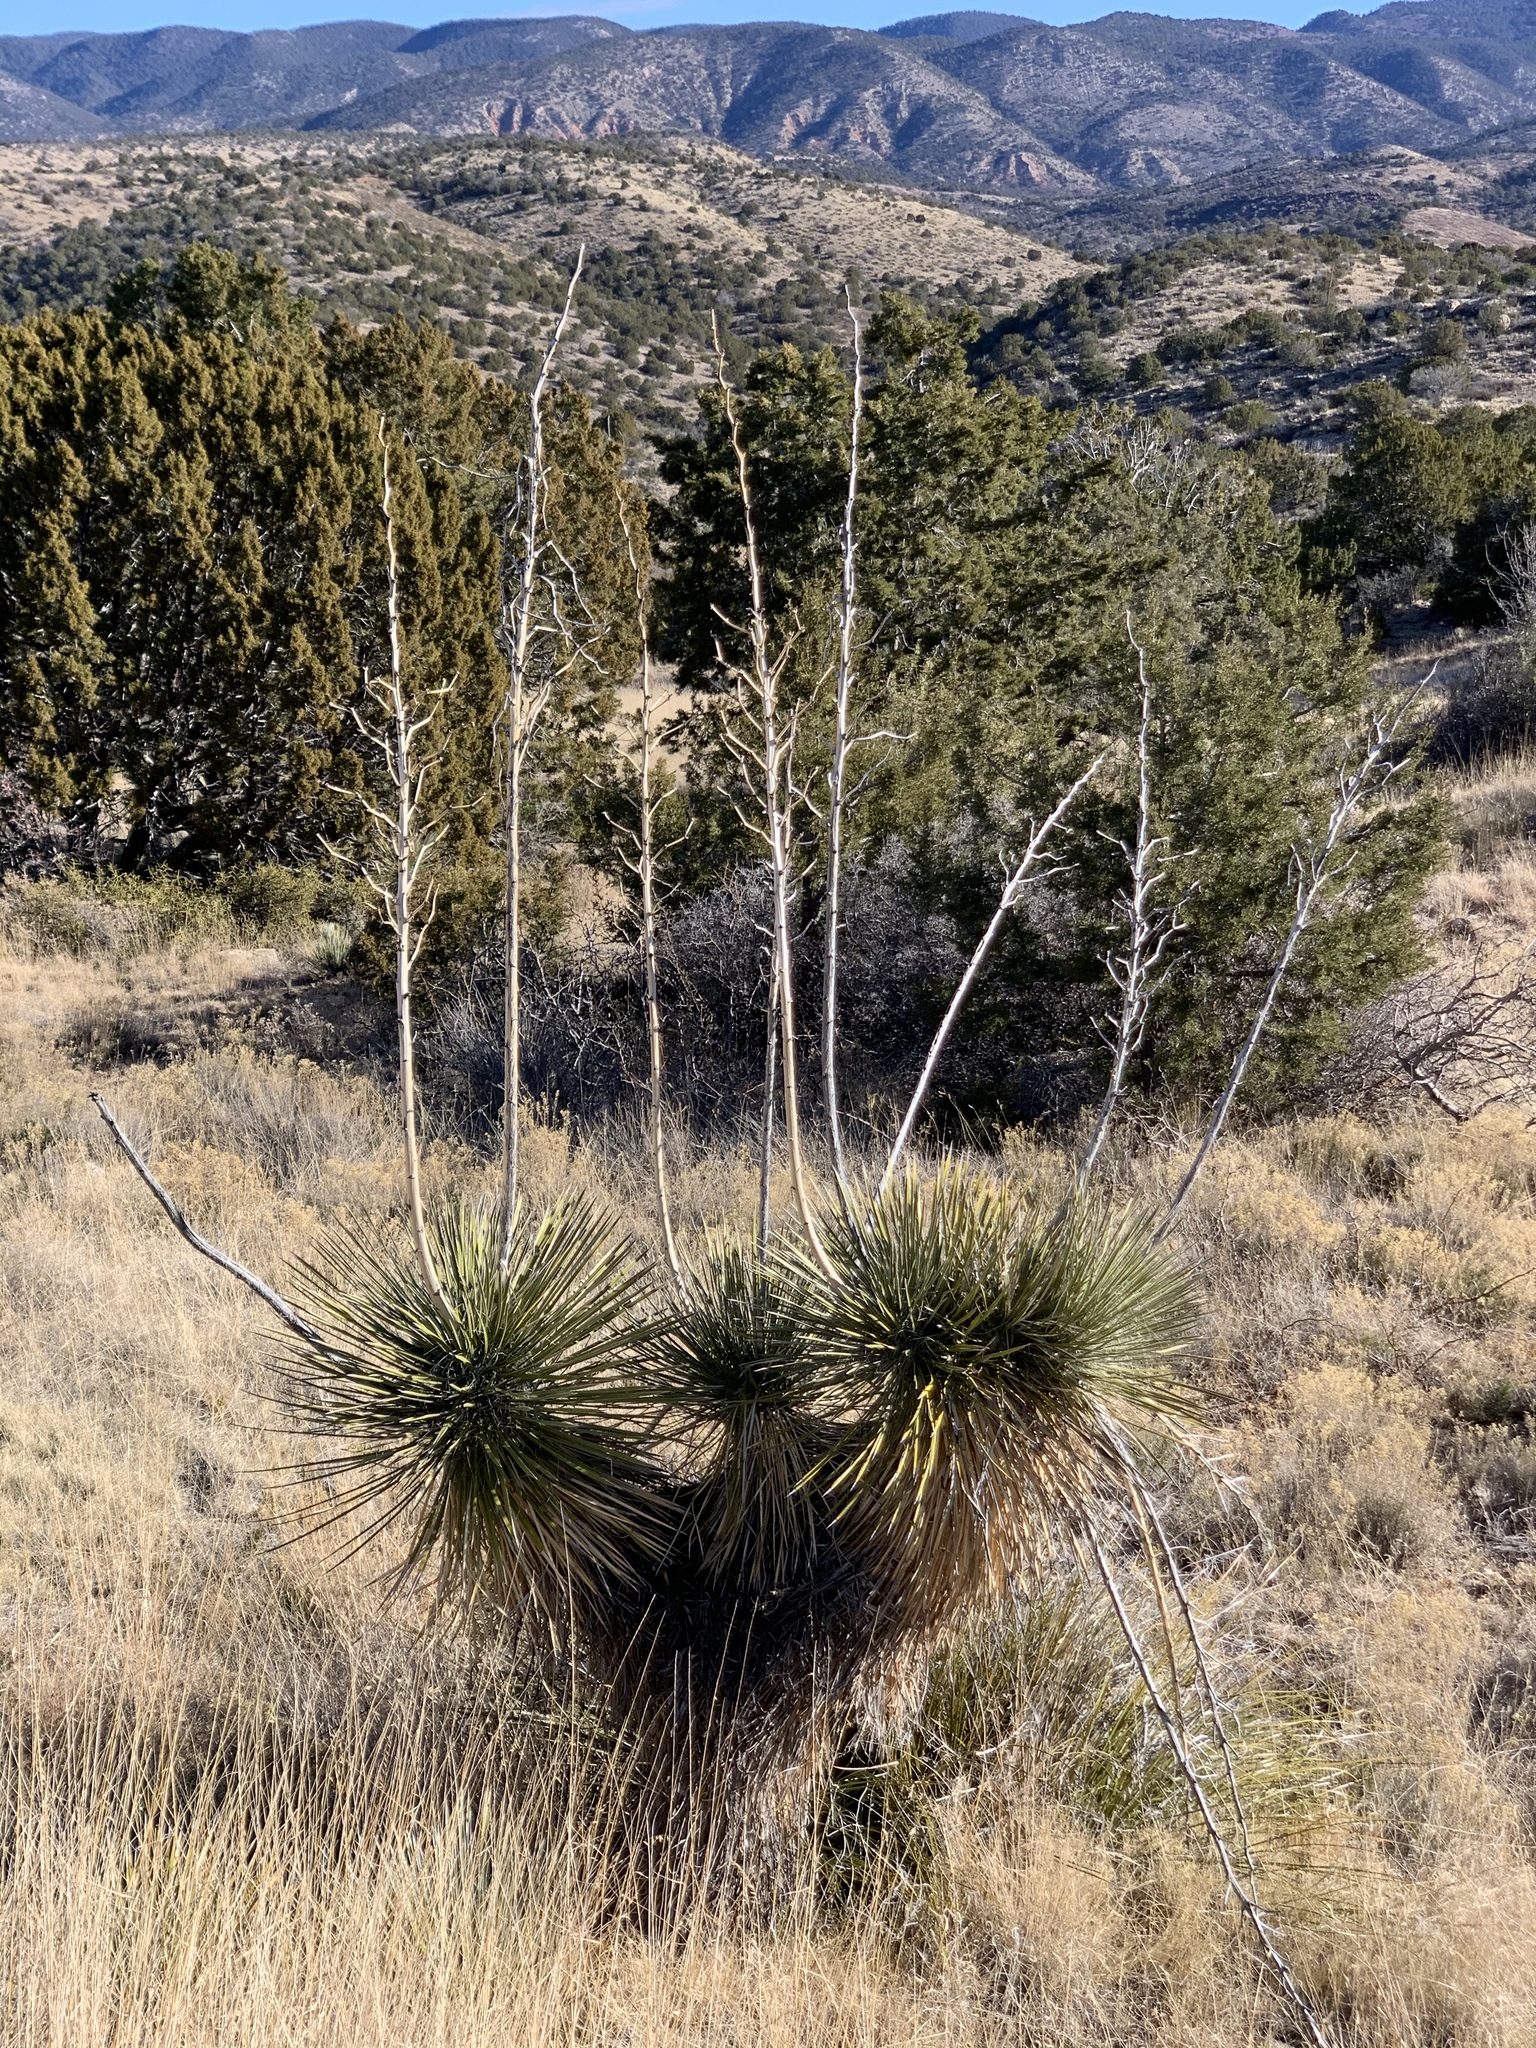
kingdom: Plantae
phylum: Tracheophyta
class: Liliopsida
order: Asparagales
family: Asparagaceae
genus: Yucca
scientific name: Yucca elata
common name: Palmella
